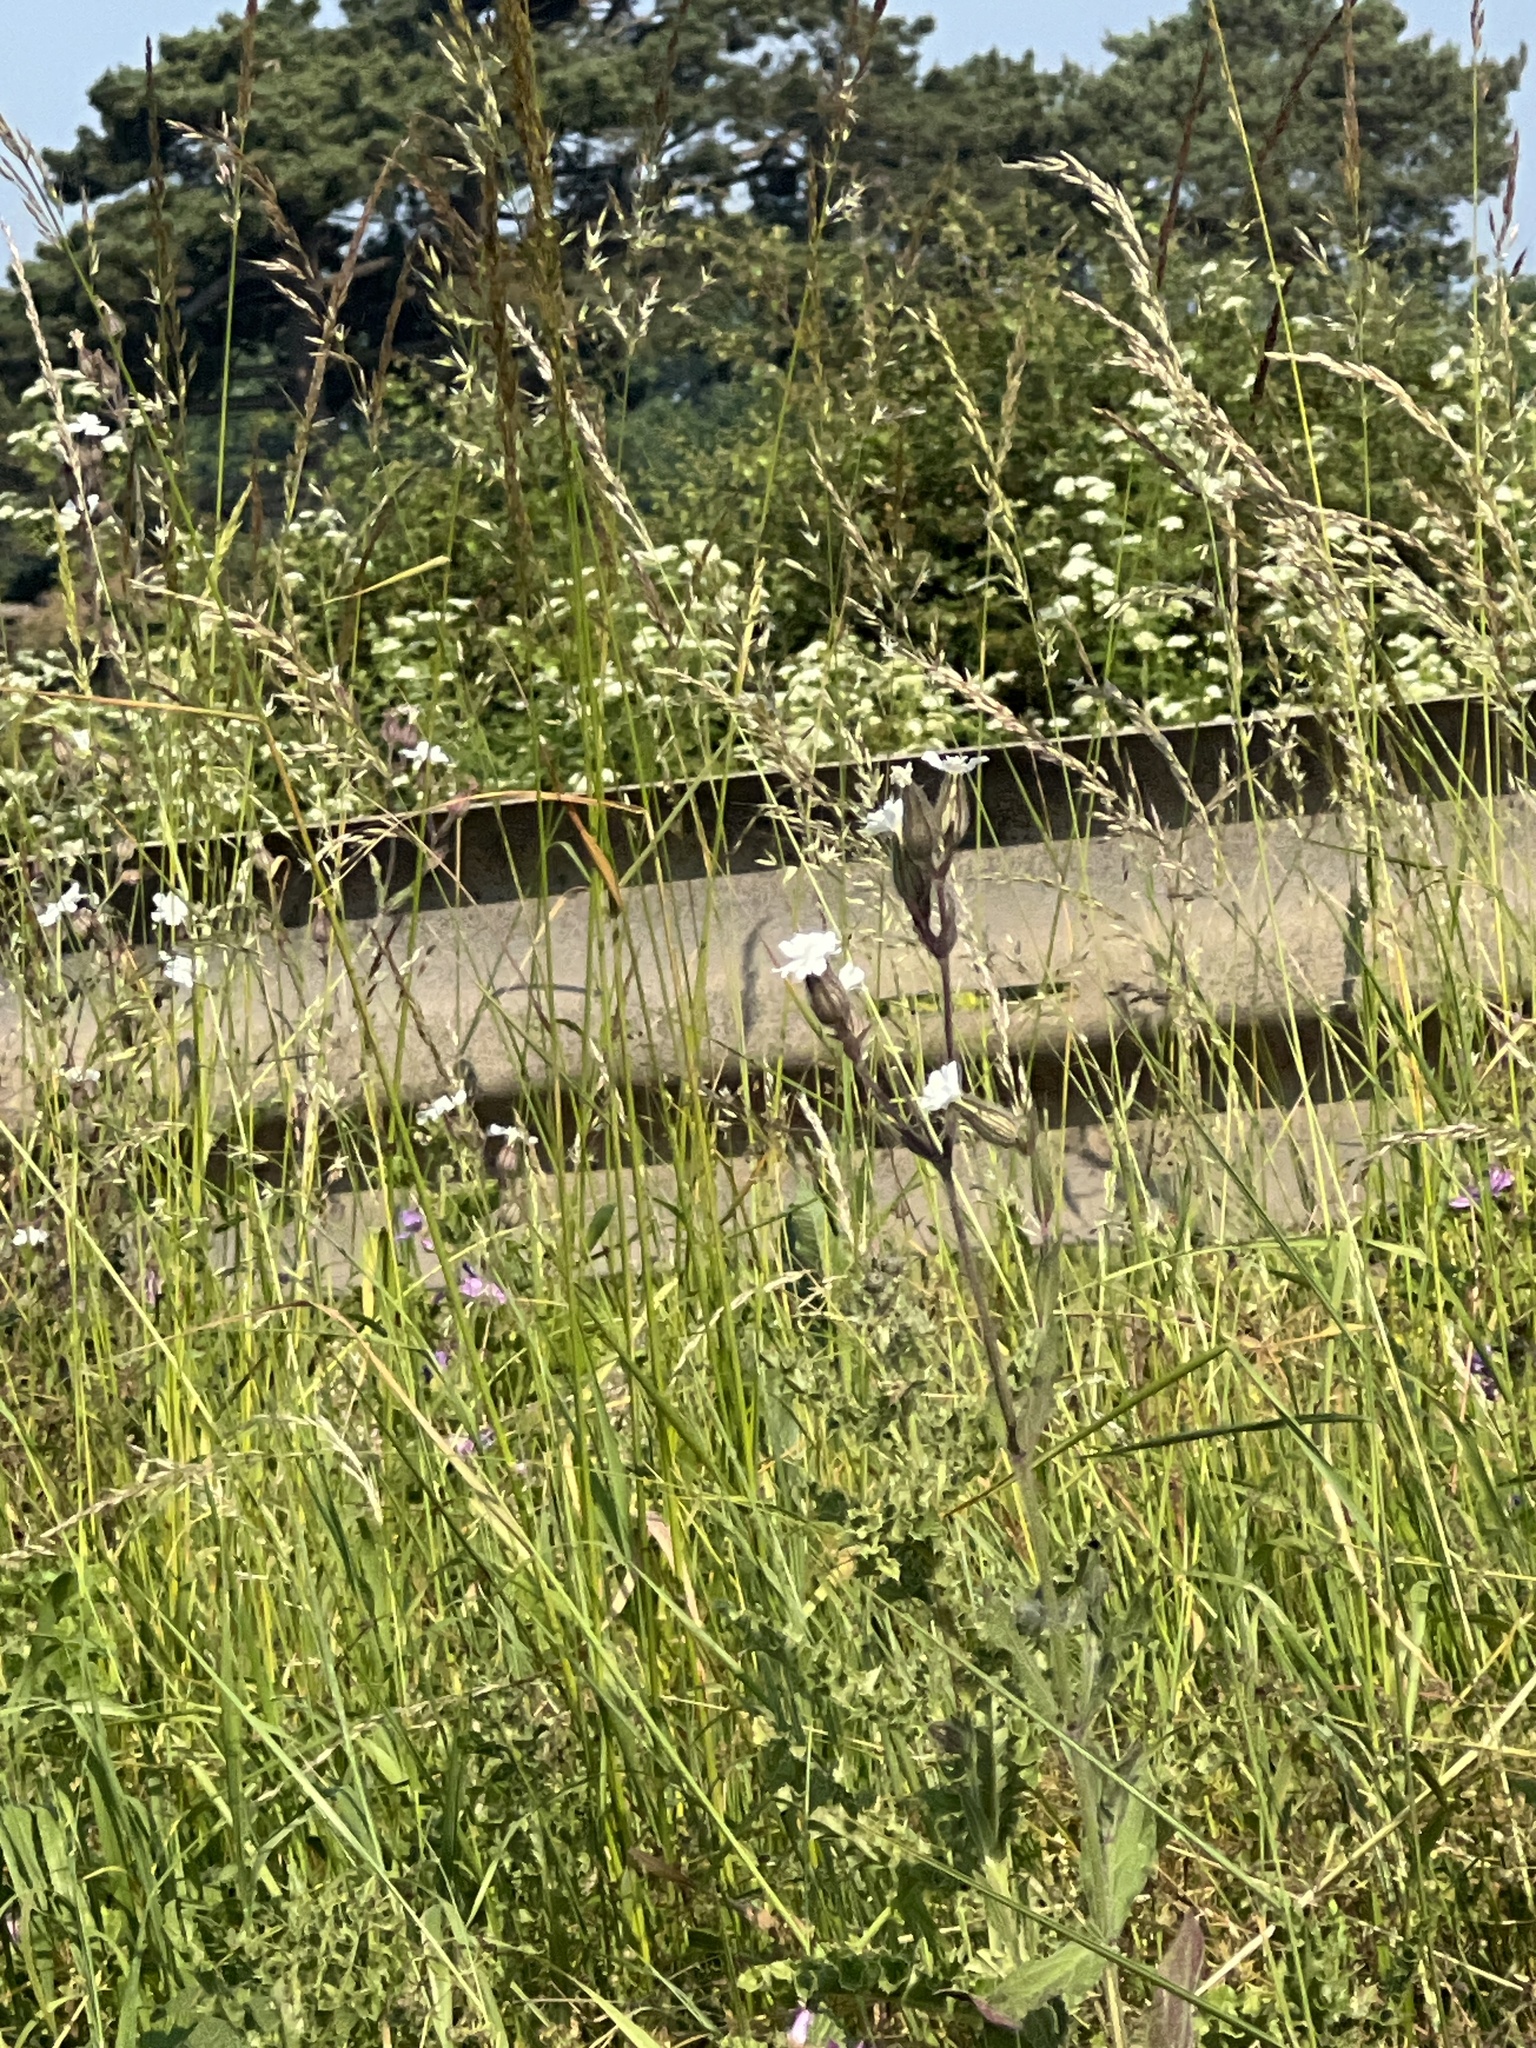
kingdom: Plantae
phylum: Tracheophyta
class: Magnoliopsida
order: Caryophyllales
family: Caryophyllaceae
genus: Silene
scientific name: Silene latifolia
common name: White campion
